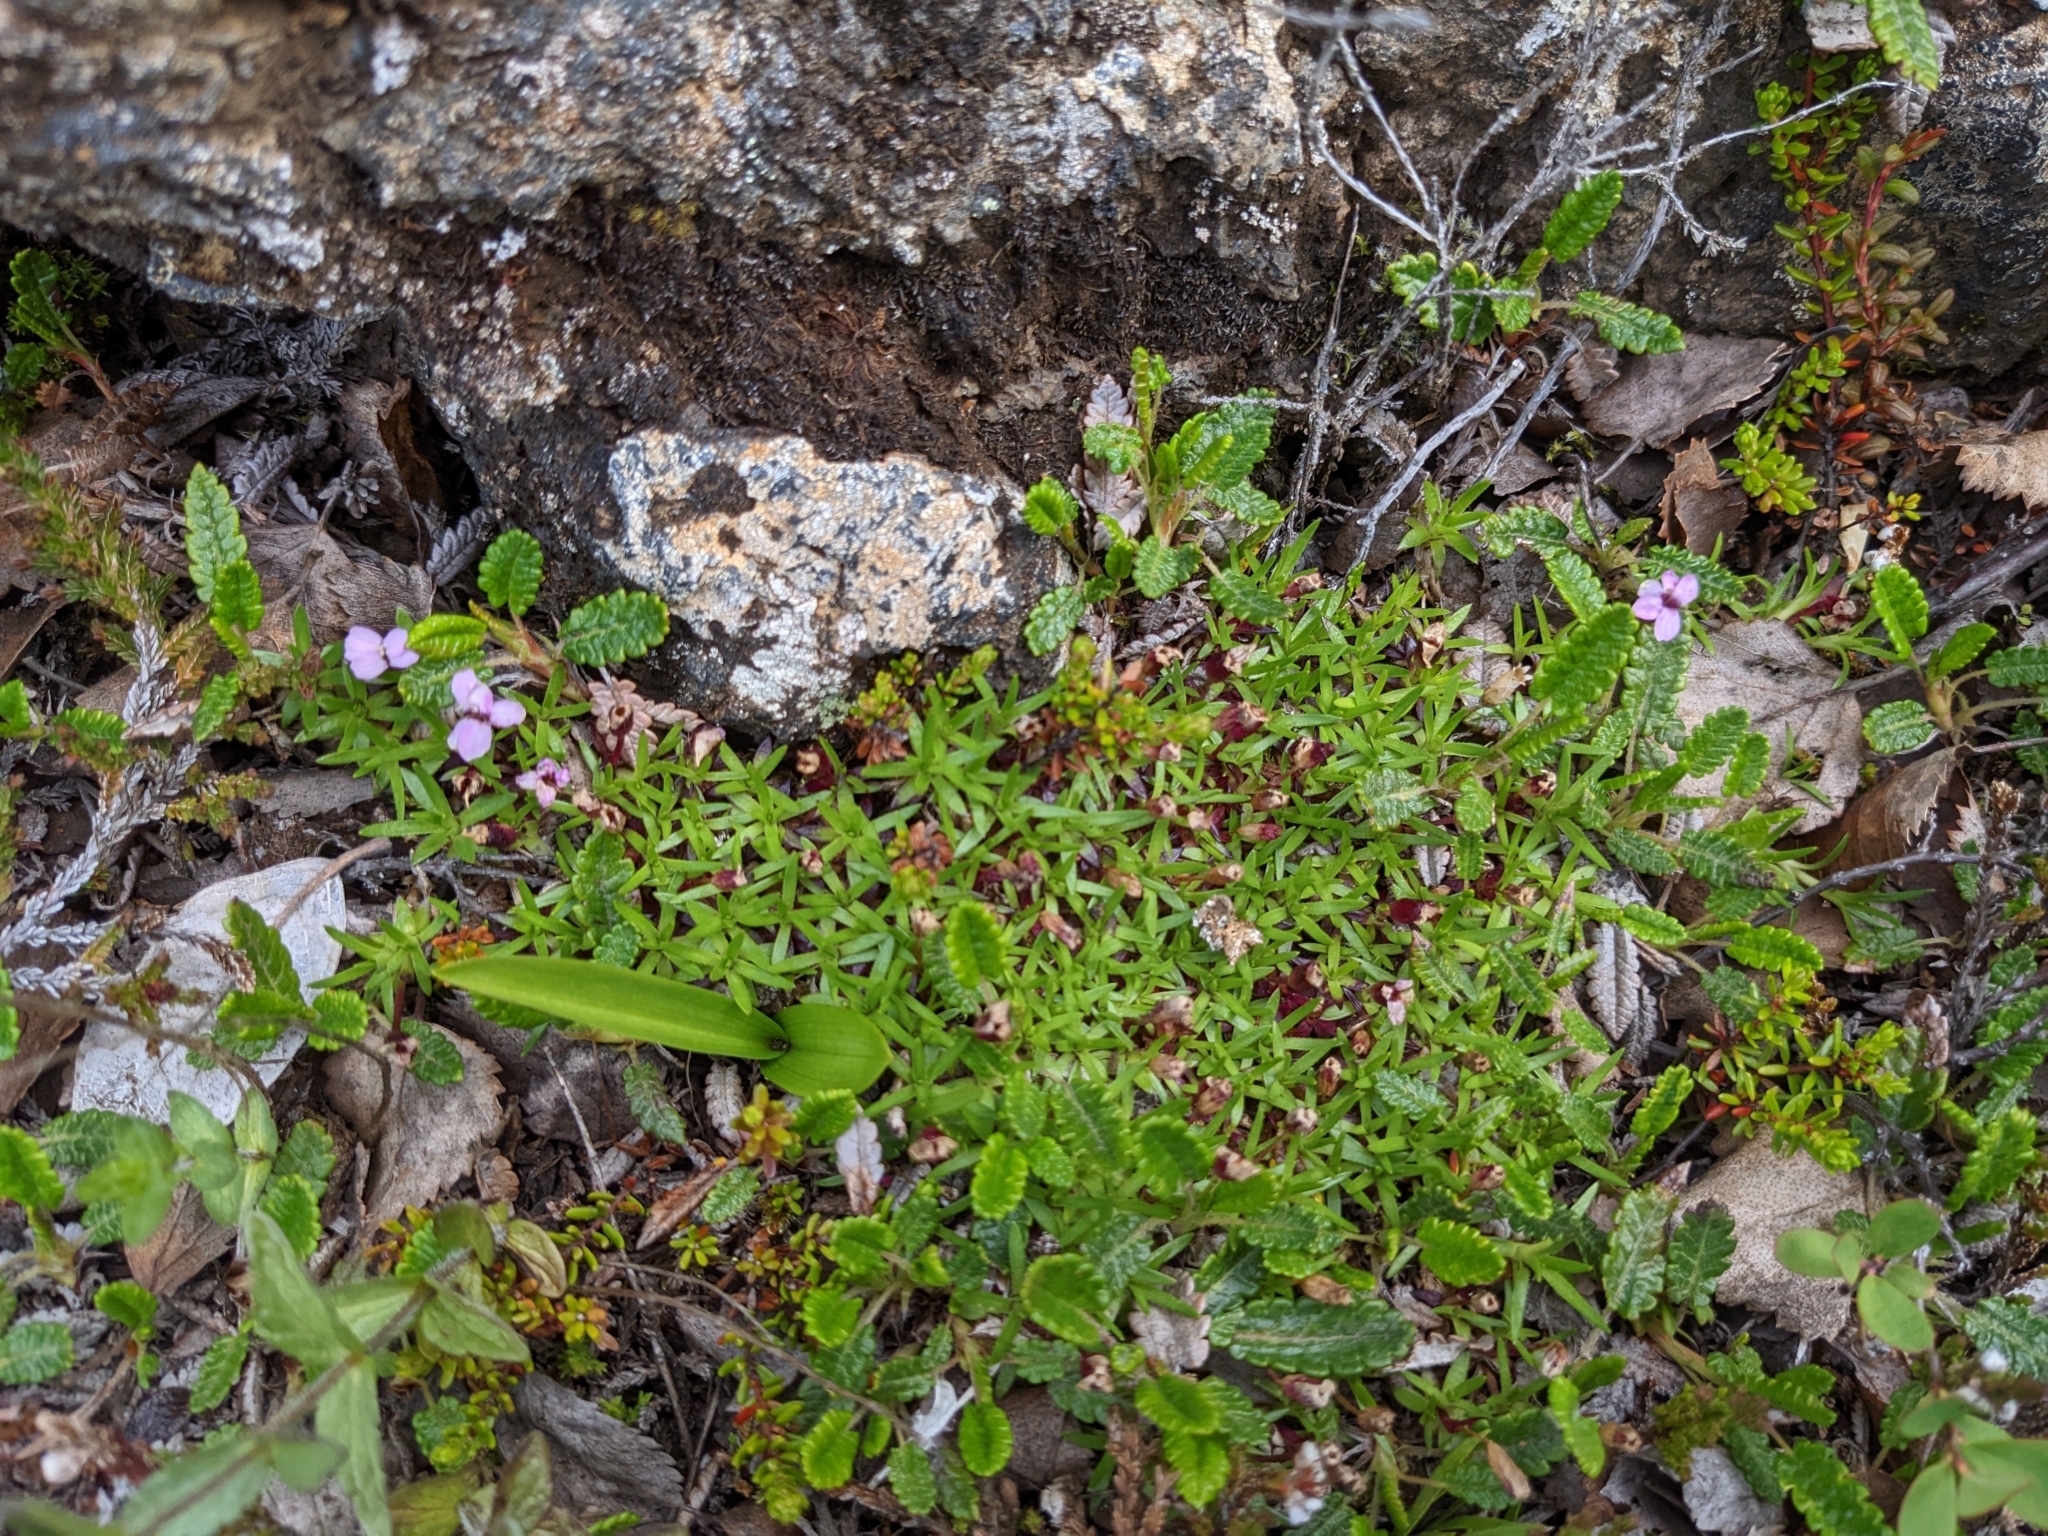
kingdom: Plantae
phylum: Tracheophyta
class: Magnoliopsida
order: Caryophyllales
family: Caryophyllaceae
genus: Silene
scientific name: Silene acaulis
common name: Moss campion
